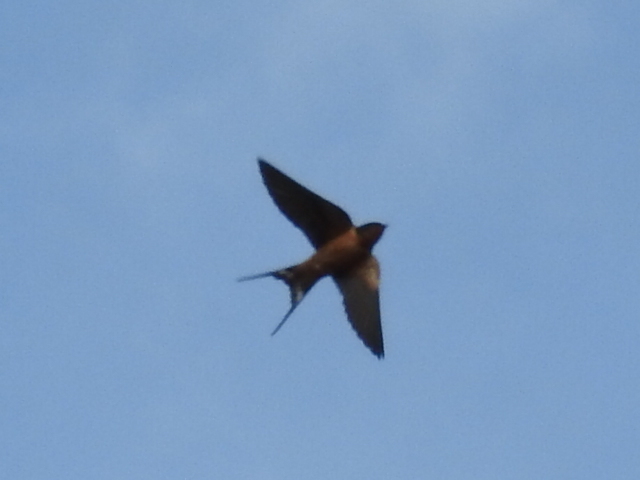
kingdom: Animalia
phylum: Chordata
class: Aves
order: Passeriformes
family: Hirundinidae
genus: Hirundo
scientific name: Hirundo rustica
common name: Barn swallow
